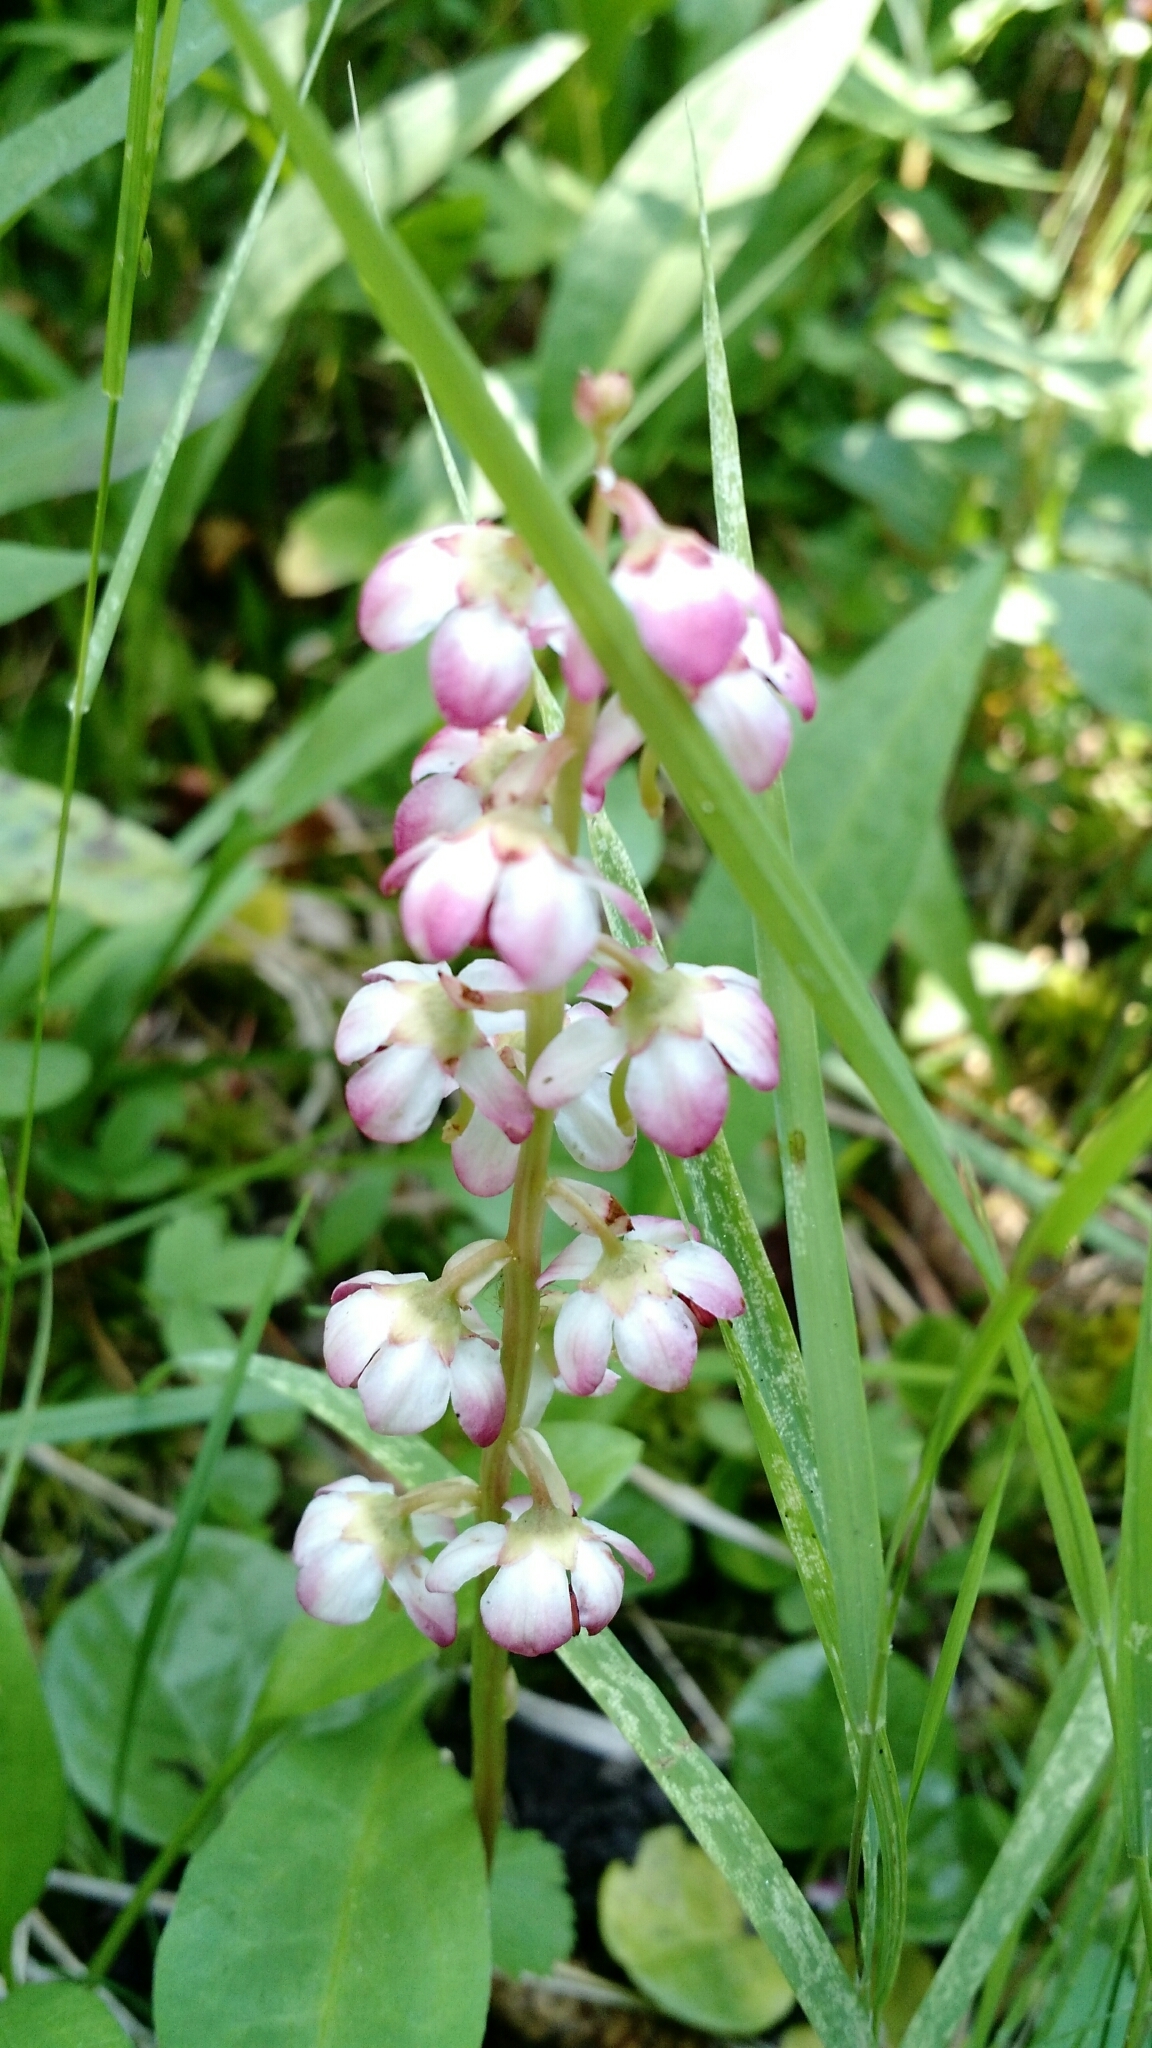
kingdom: Plantae
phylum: Tracheophyta
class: Magnoliopsida
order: Ericales
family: Ericaceae
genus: Pyrola
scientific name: Pyrola asarifolia
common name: Bog wintergreen
